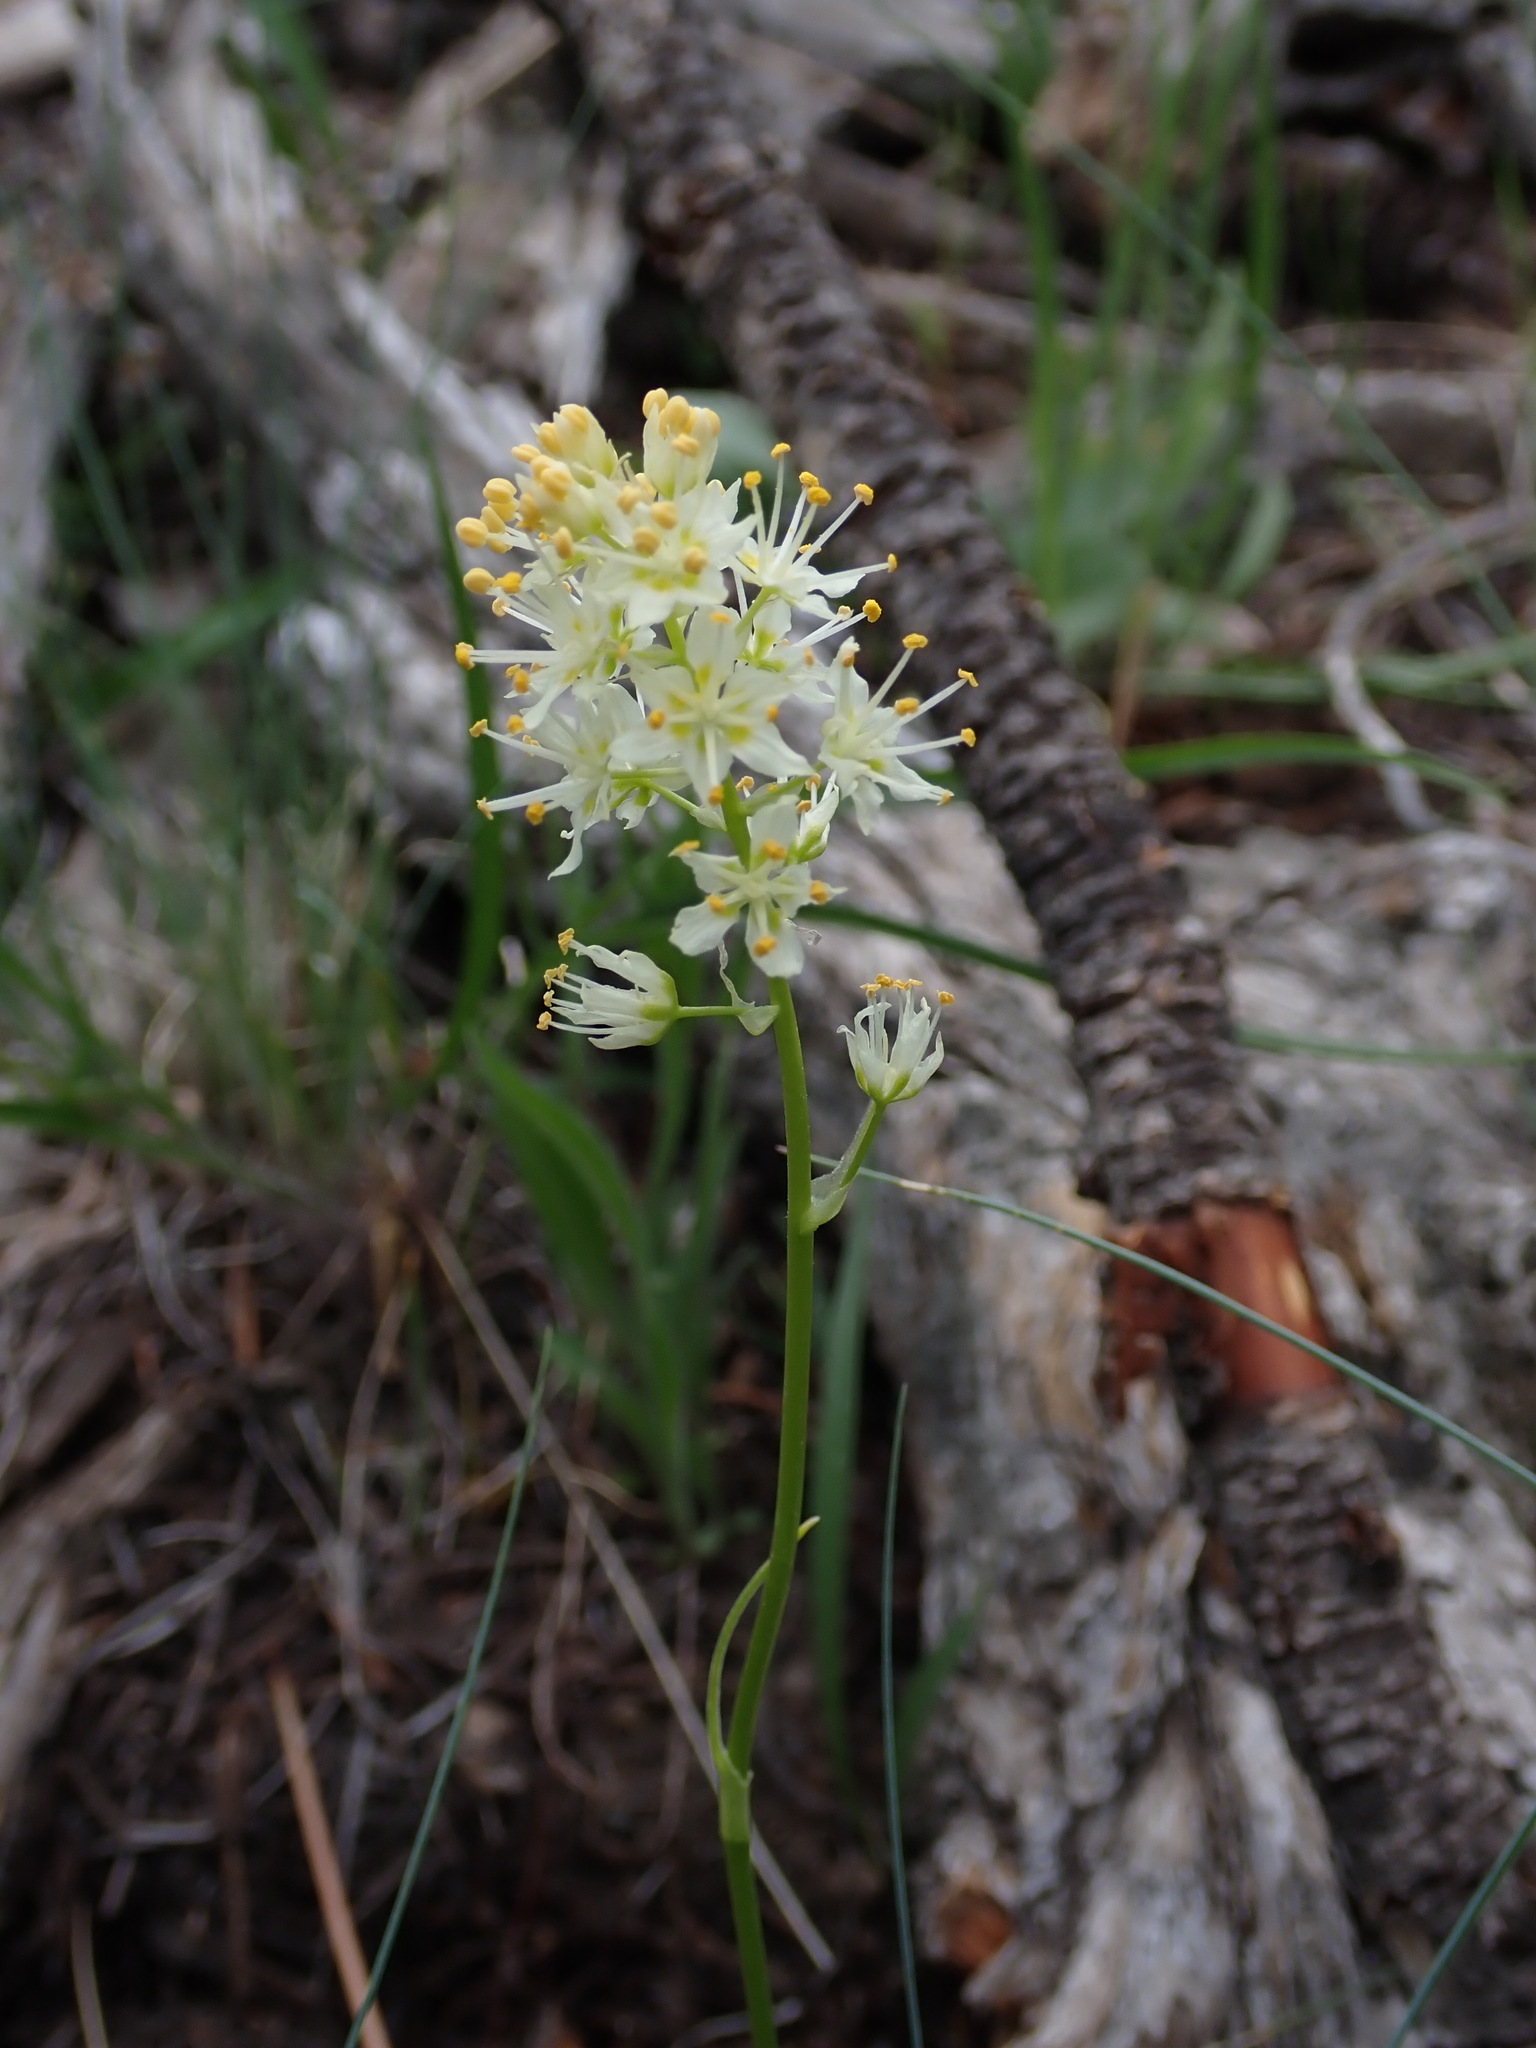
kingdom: Plantae
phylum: Tracheophyta
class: Liliopsida
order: Liliales
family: Melanthiaceae
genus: Toxicoscordion
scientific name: Toxicoscordion venenosum
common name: Meadow death camas
